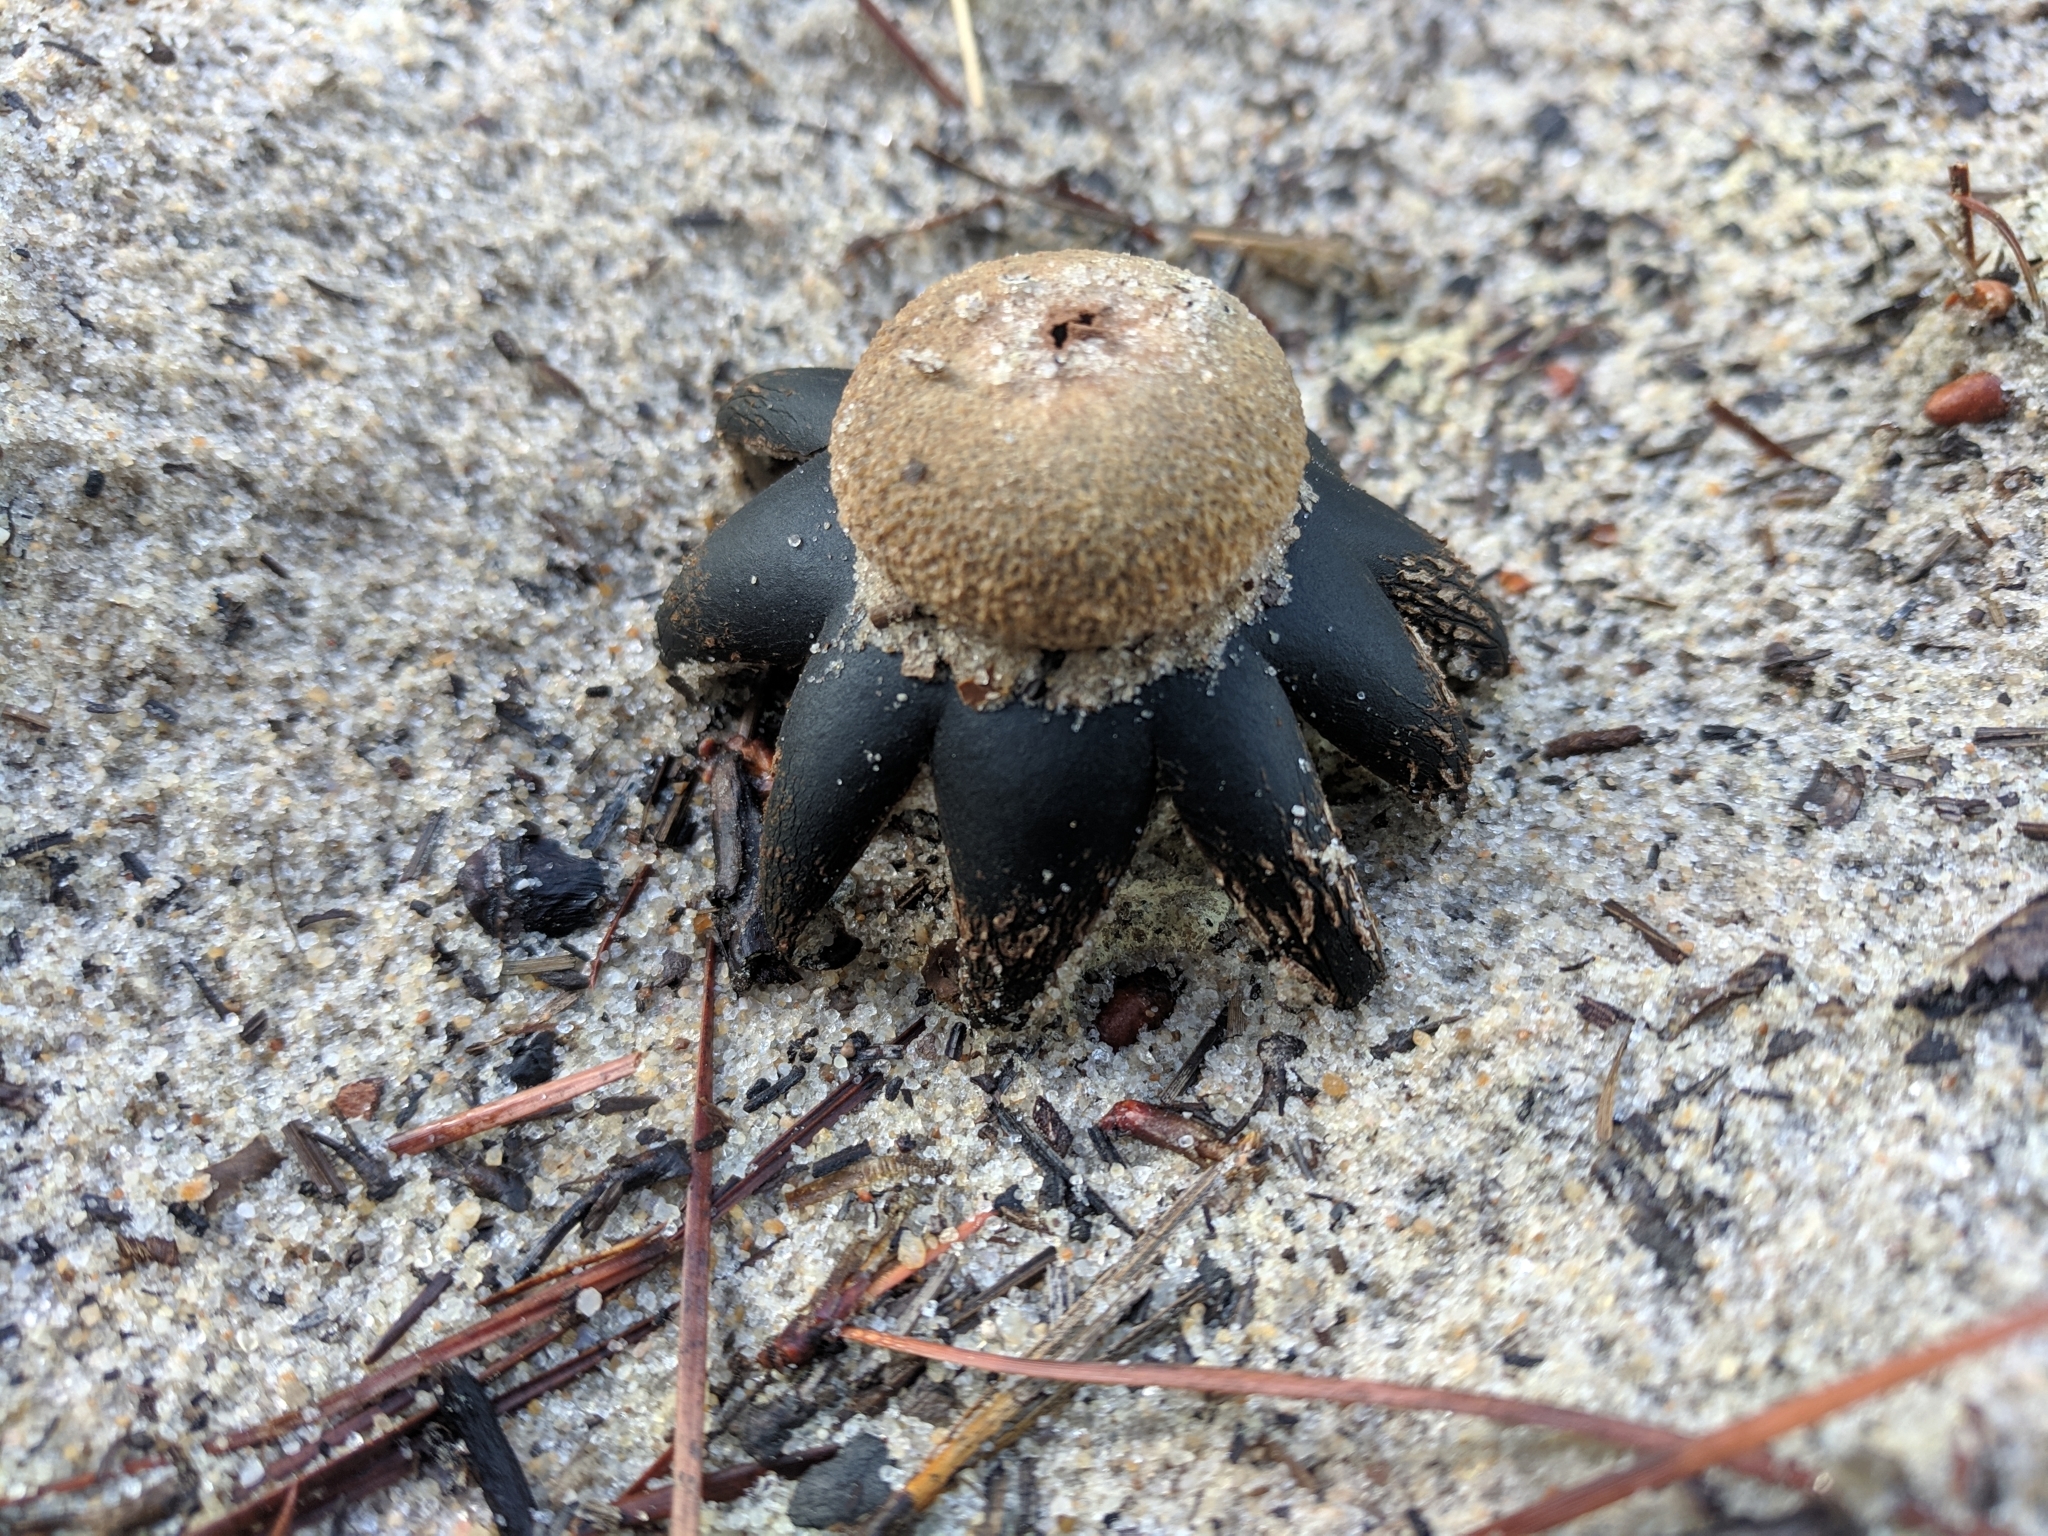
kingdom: Fungi
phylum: Basidiomycota
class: Agaricomycetes
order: Boletales
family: Diplocystidiaceae
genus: Astraeus
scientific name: Astraeus hygrometricus
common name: Barometer earthstar
